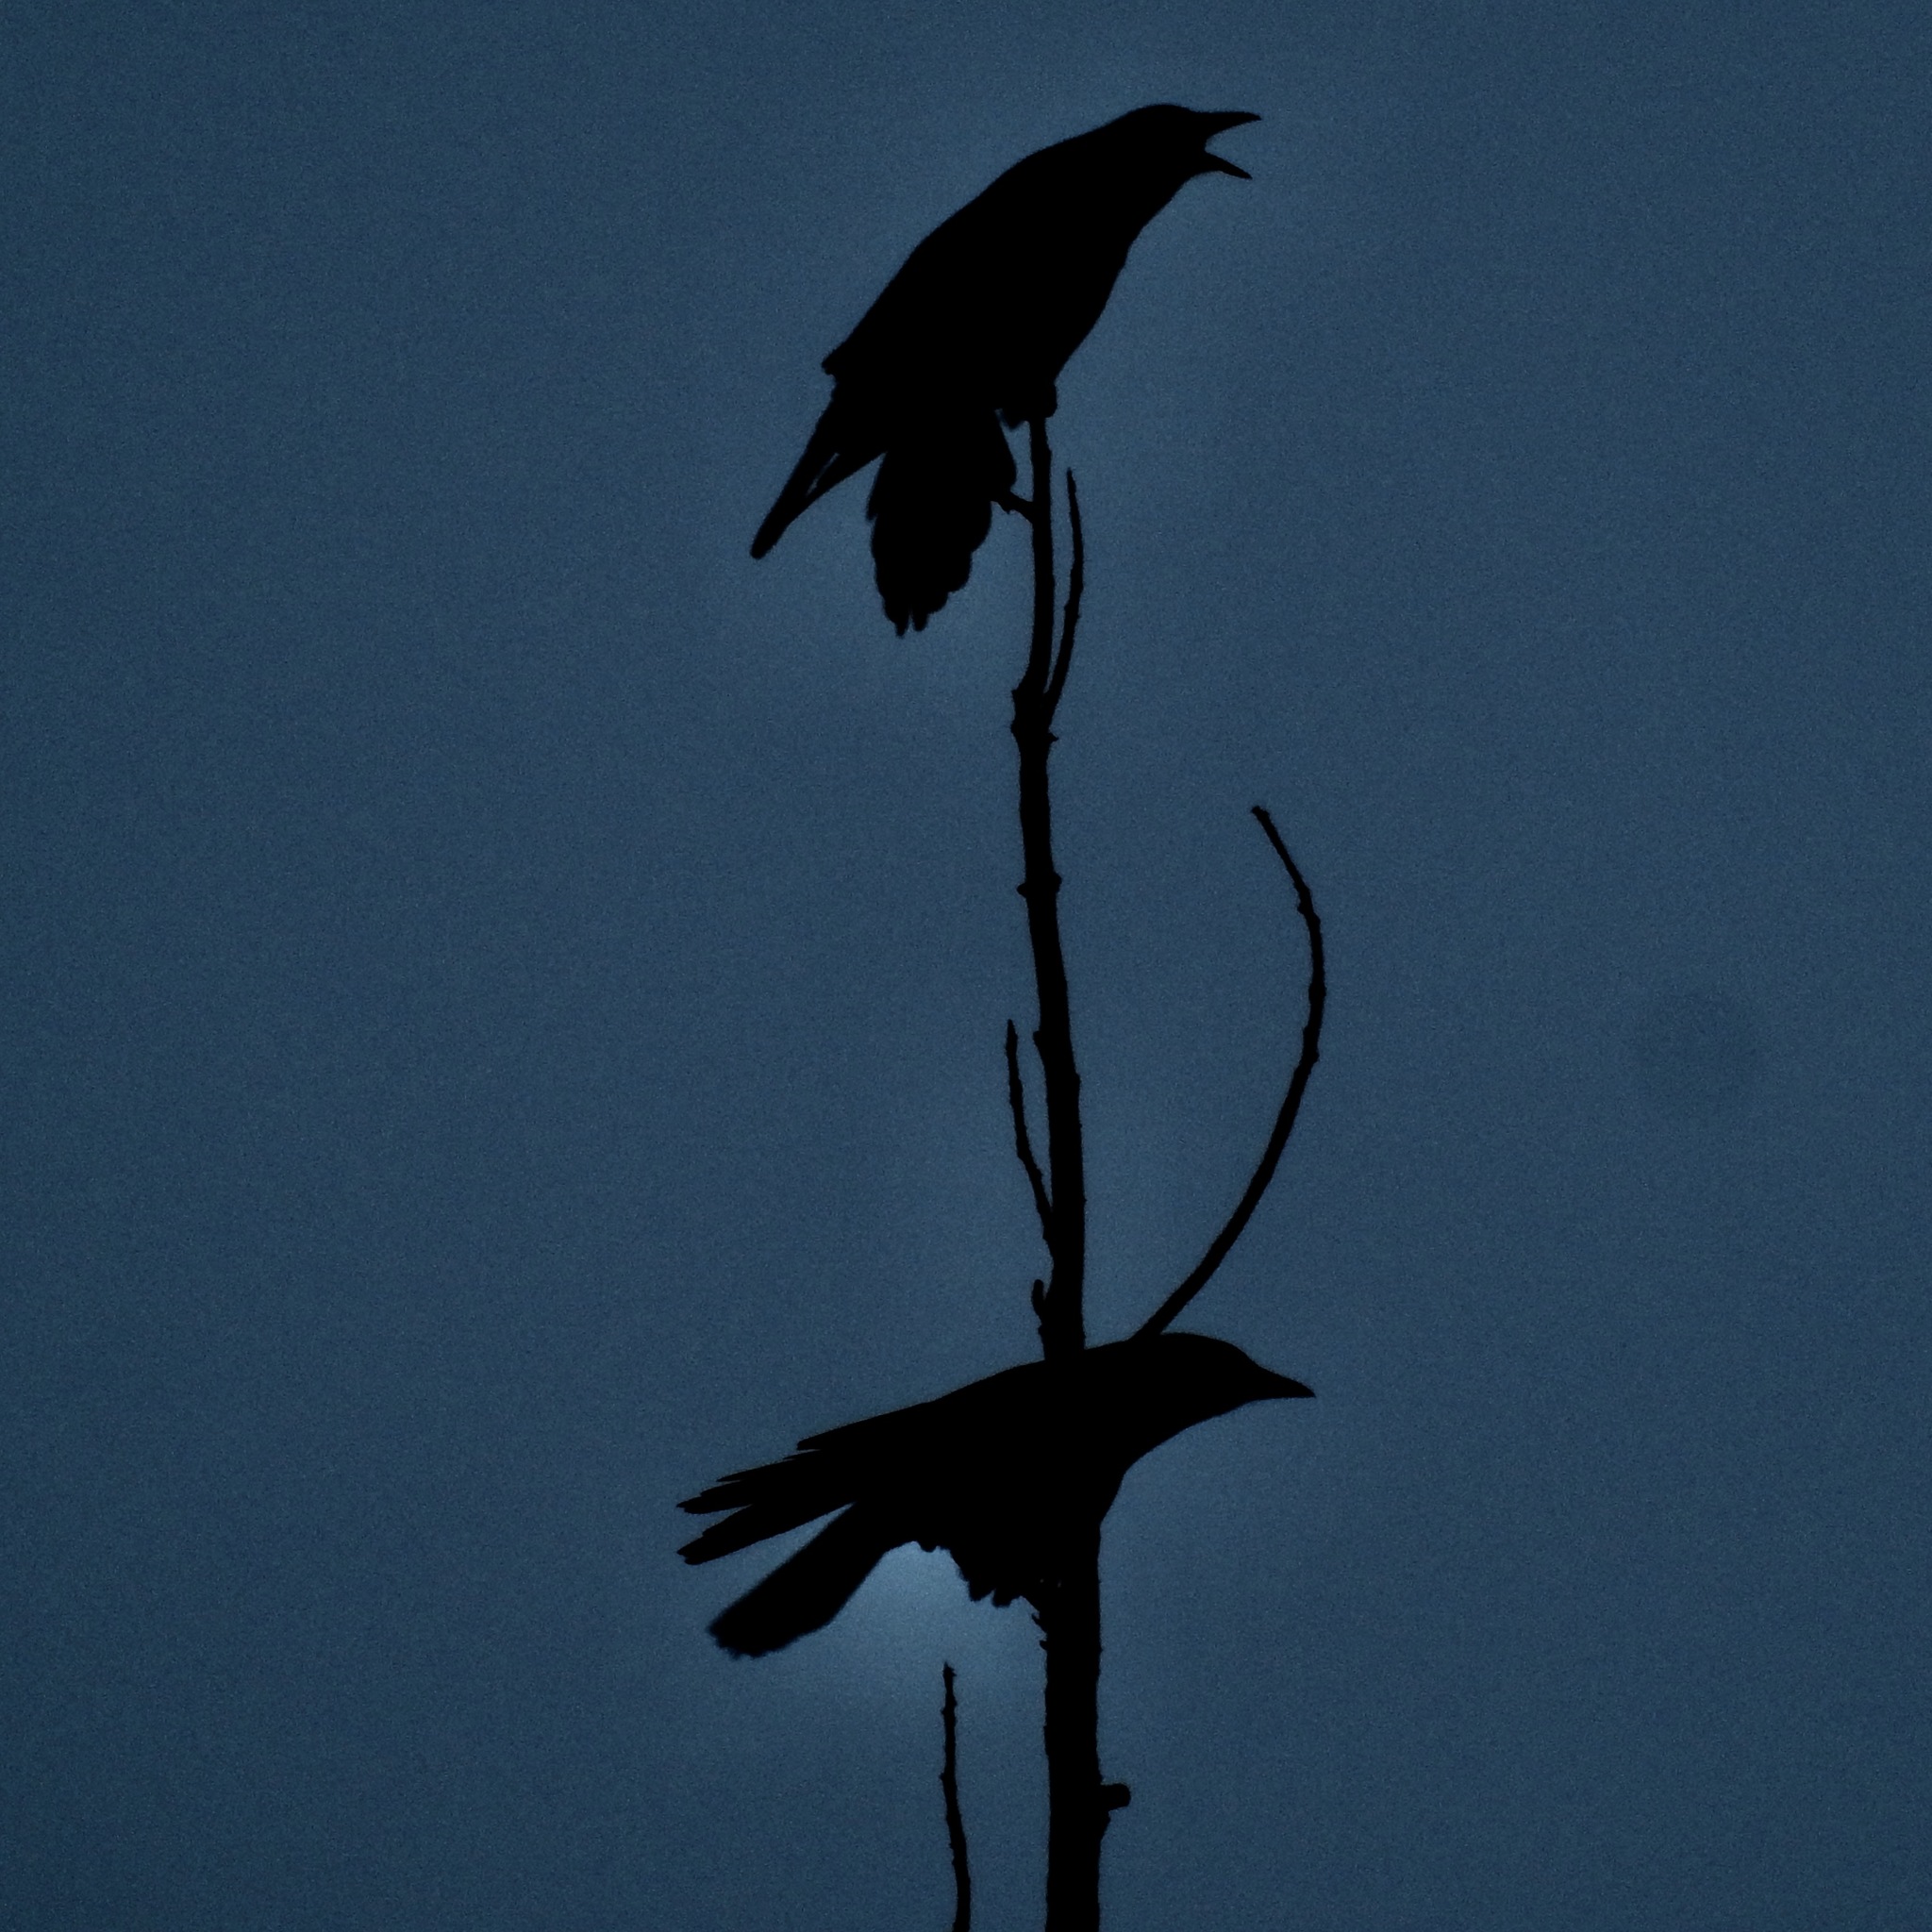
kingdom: Animalia
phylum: Chordata
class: Aves
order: Passeriformes
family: Corvidae
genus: Corvus
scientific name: Corvus brachyrhynchos
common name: American crow
